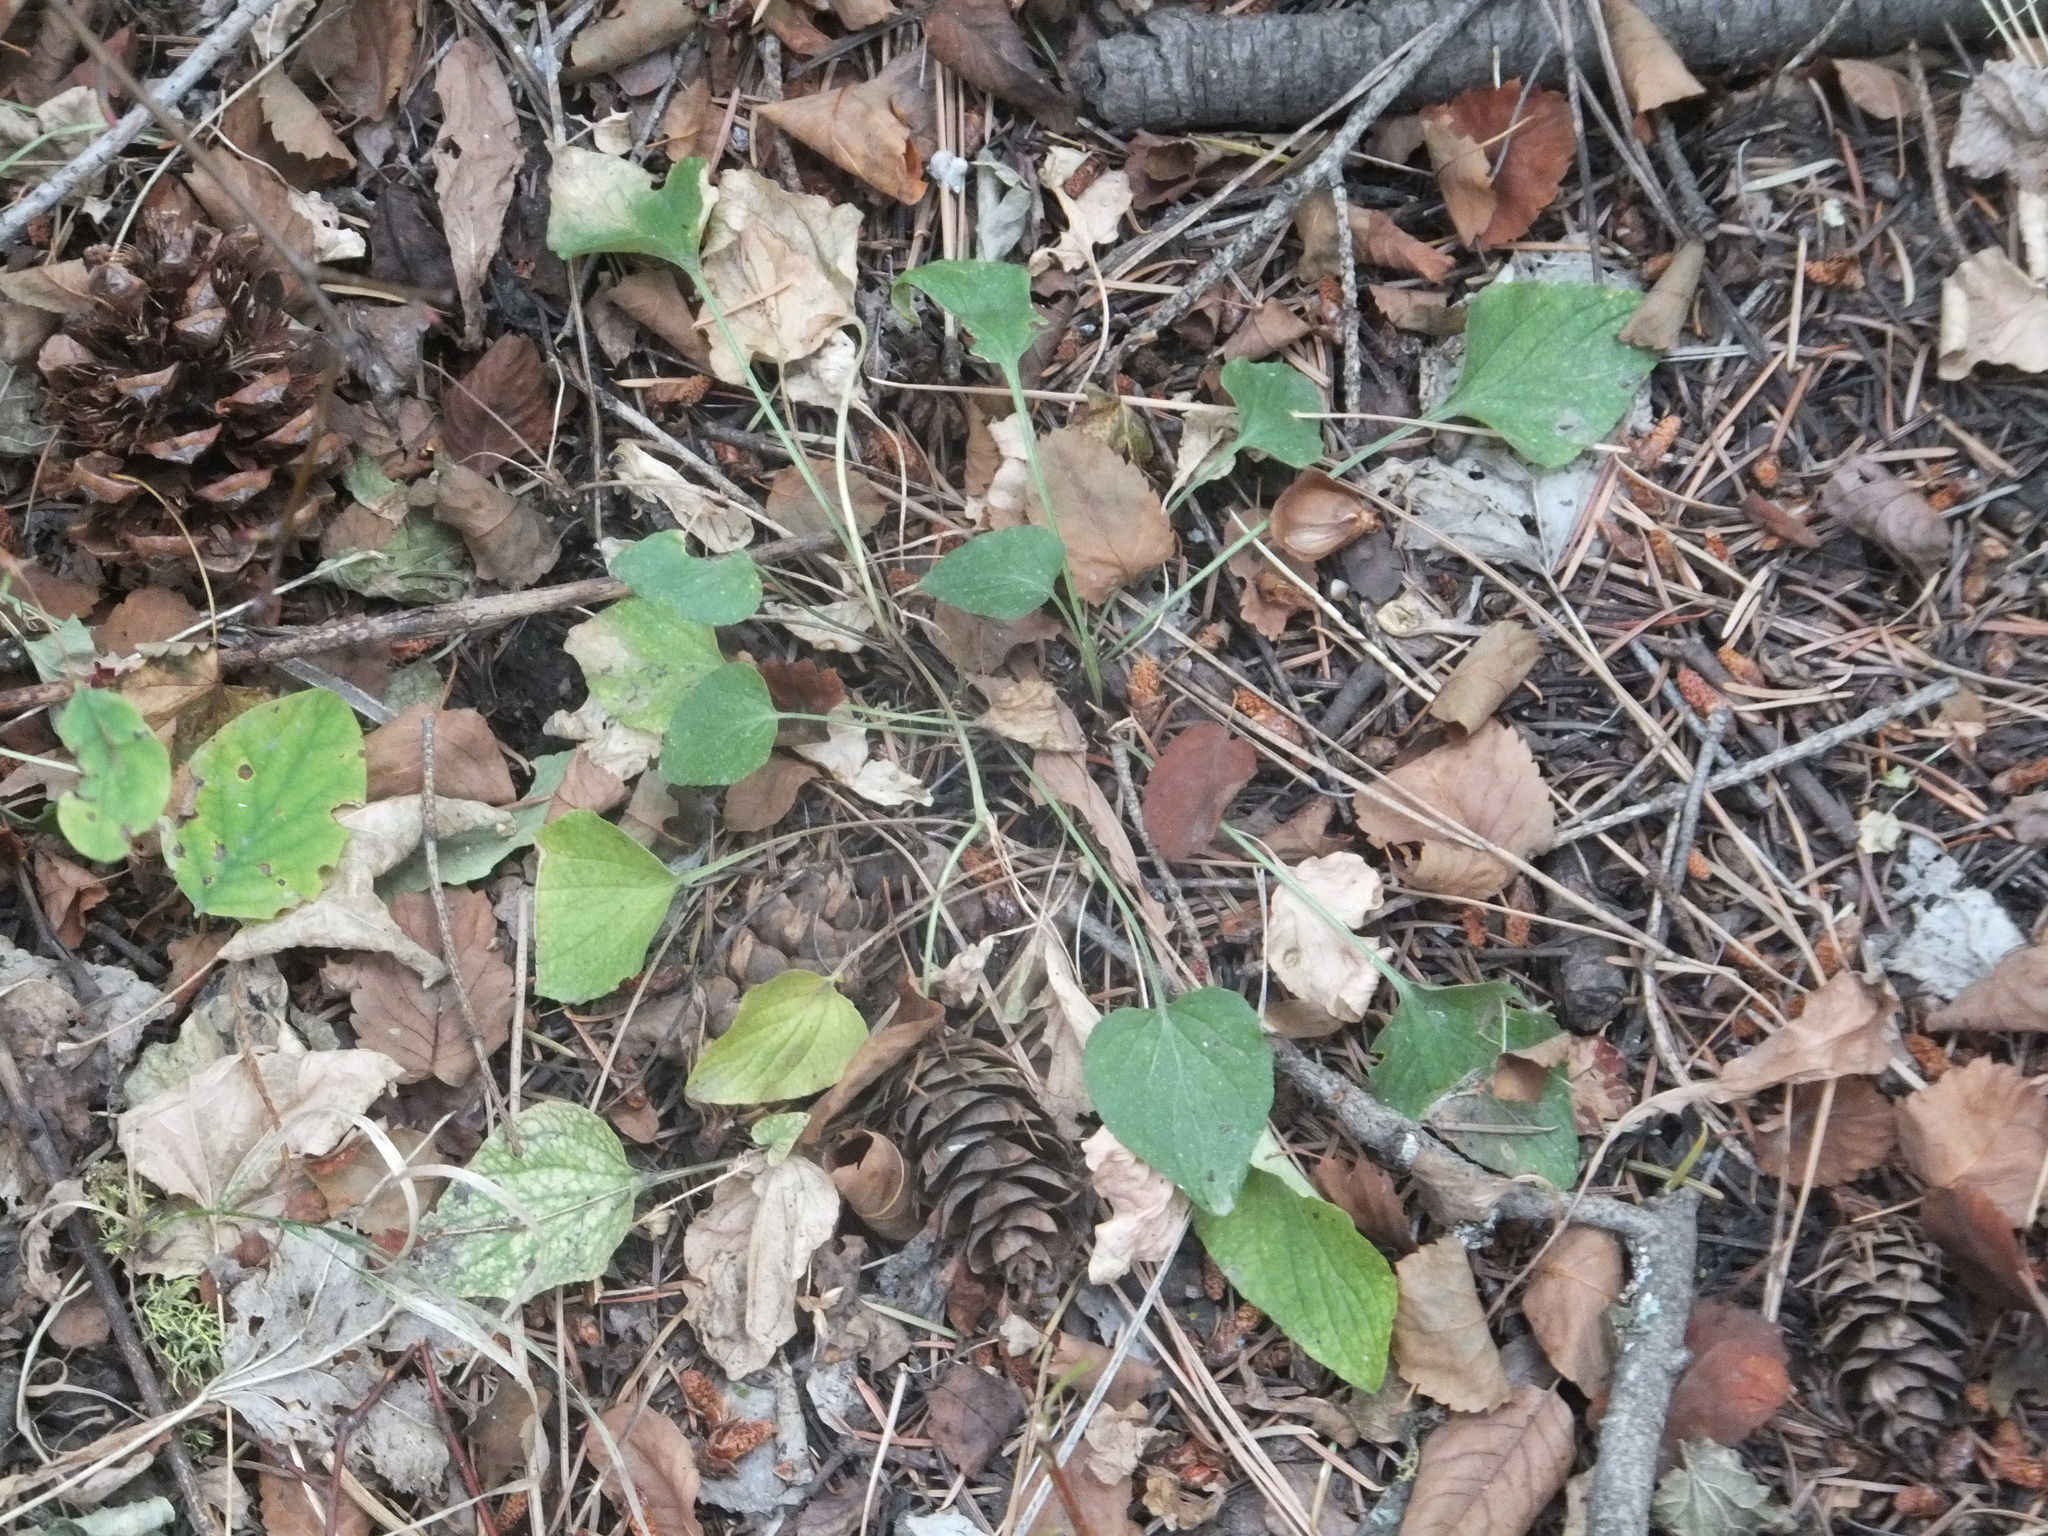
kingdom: Plantae
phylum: Tracheophyta
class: Magnoliopsida
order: Malpighiales
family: Violaceae
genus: Viola
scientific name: Viola adunca
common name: Sand violet
